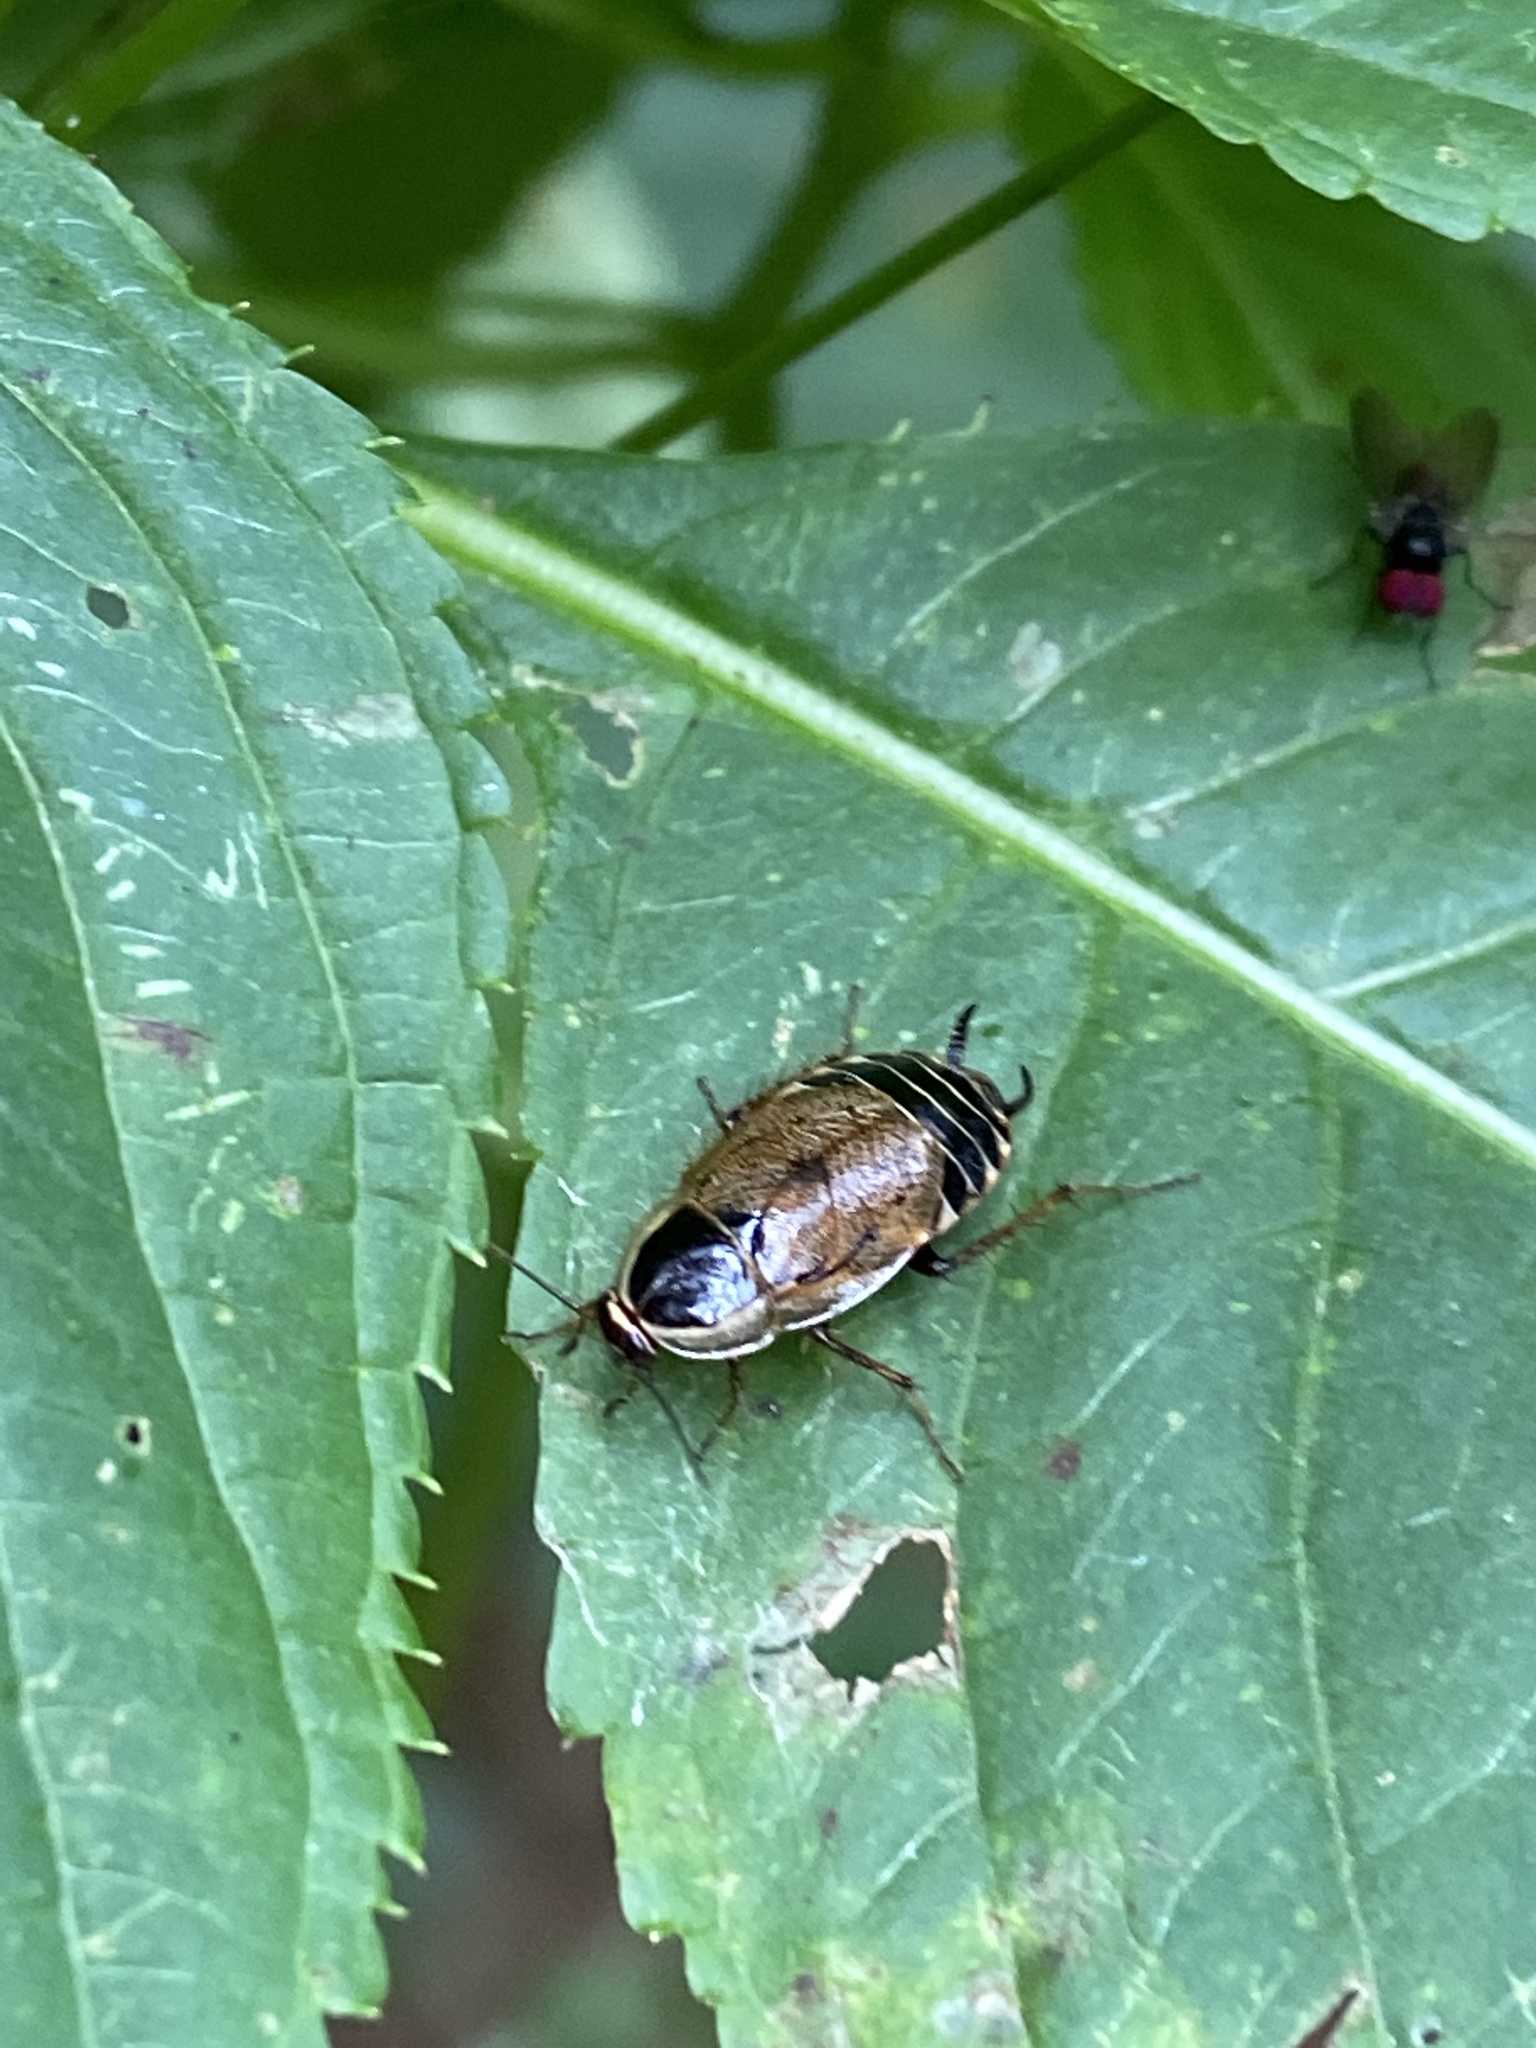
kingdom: Animalia
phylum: Arthropoda
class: Insecta
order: Blattodea
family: Ectobiidae
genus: Ectobius
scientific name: Ectobius sylvestris
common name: Forest cockroach
